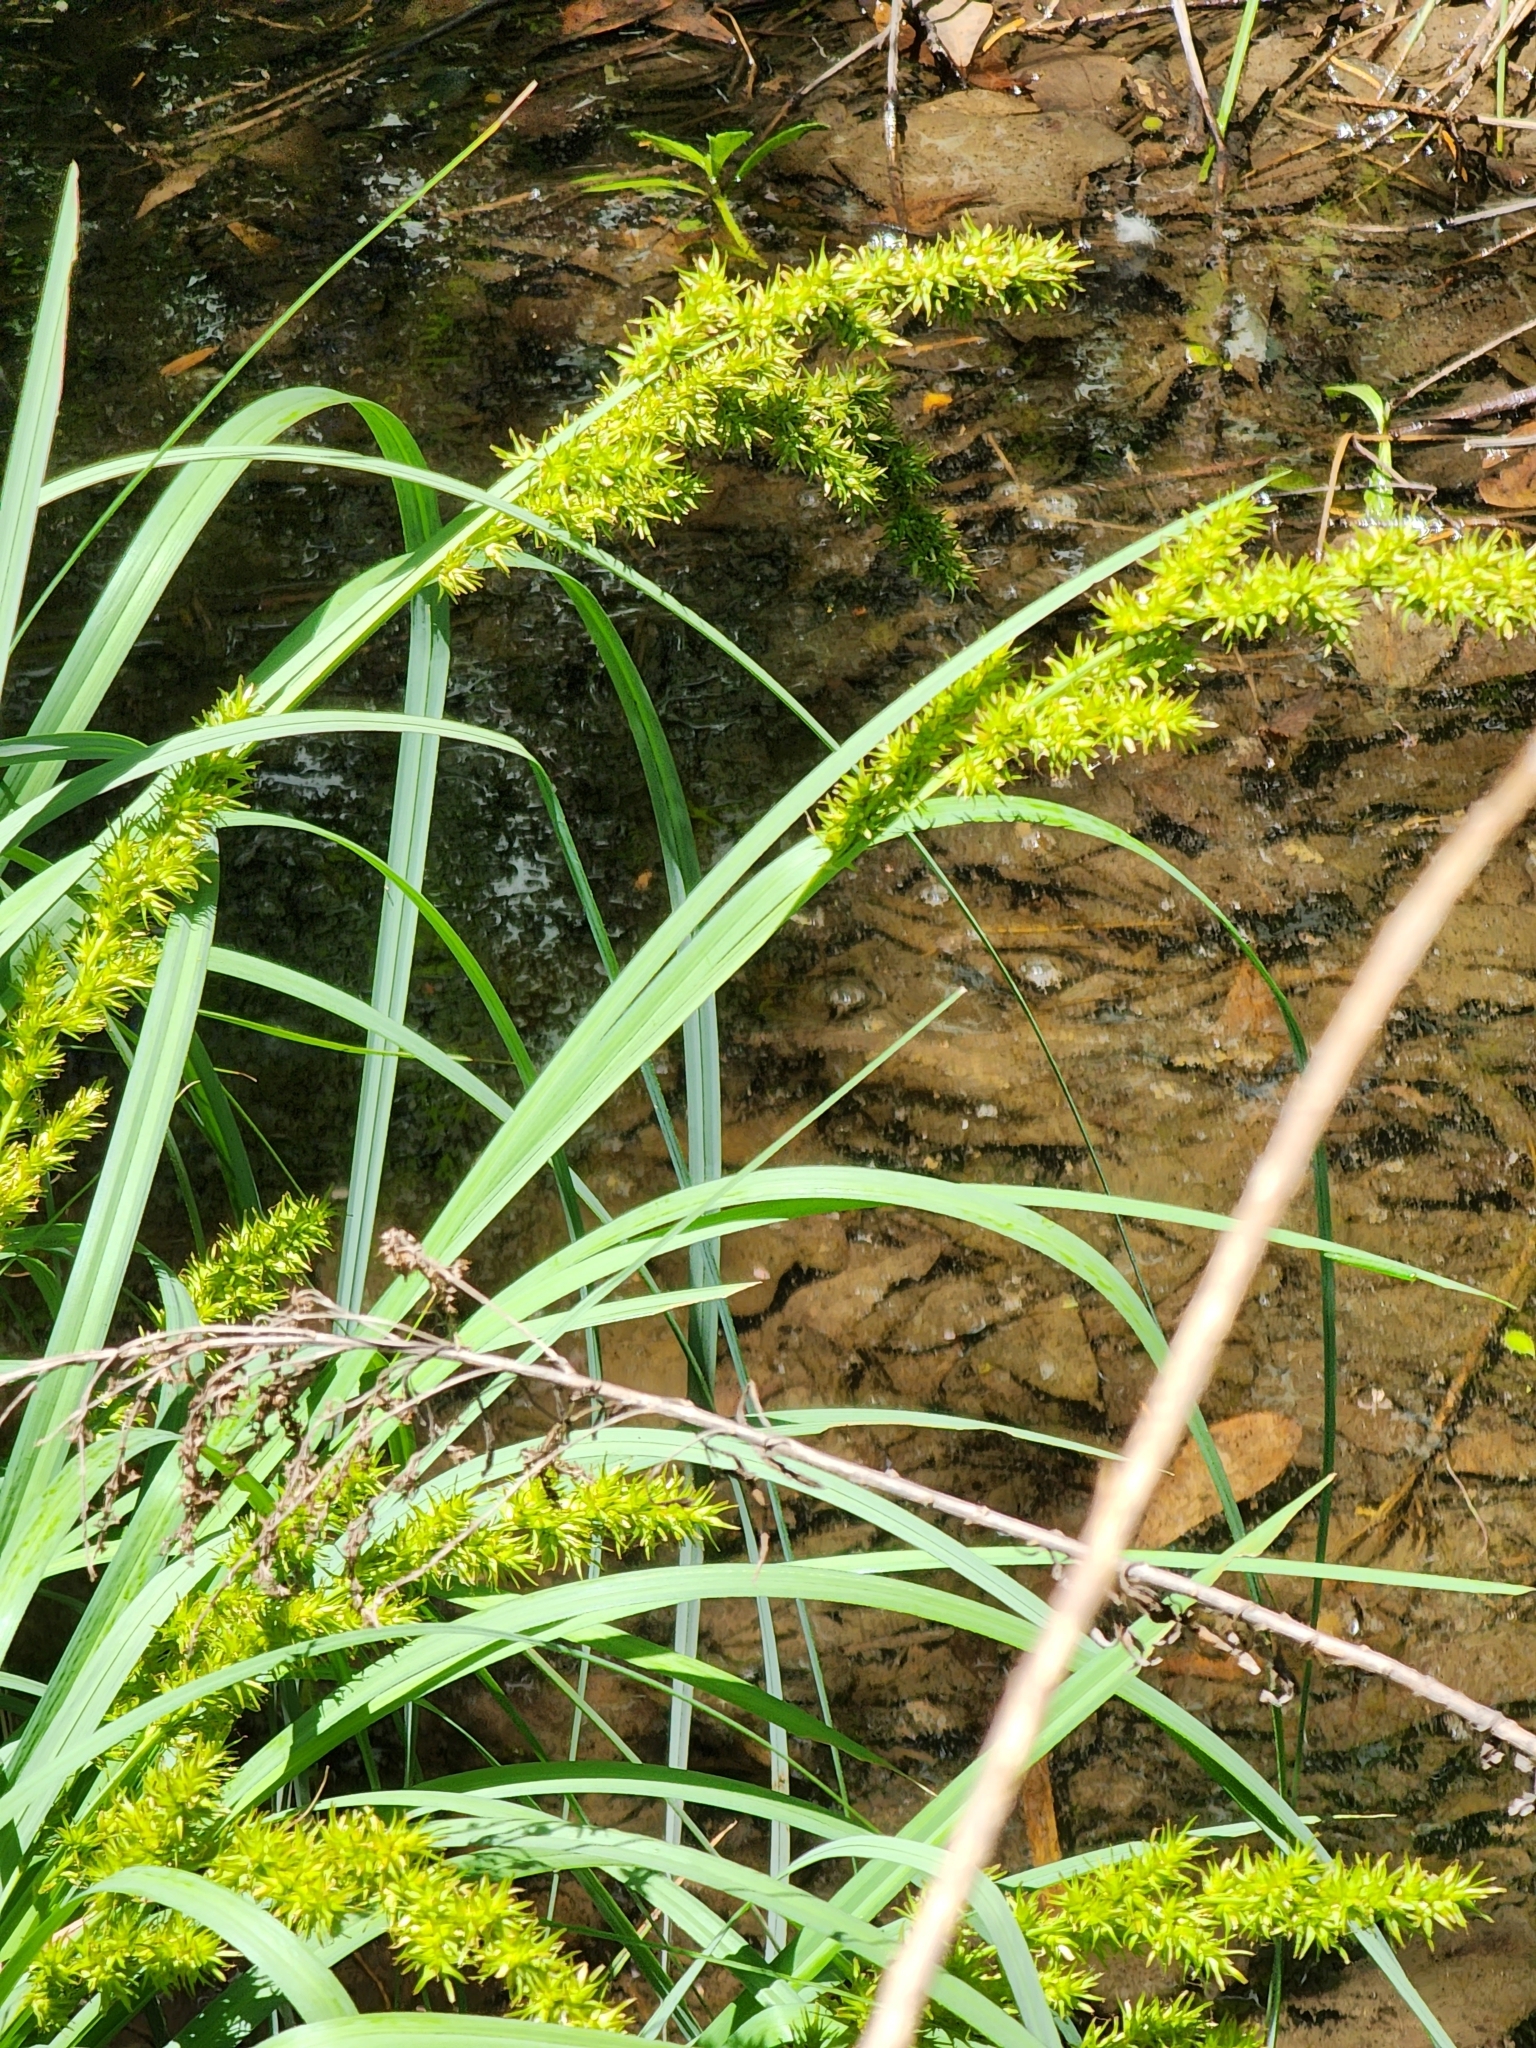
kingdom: Plantae
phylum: Tracheophyta
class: Liliopsida
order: Poales
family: Cyperaceae
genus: Carex
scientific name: Carex crus-corvi
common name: Crow-spur sedge
